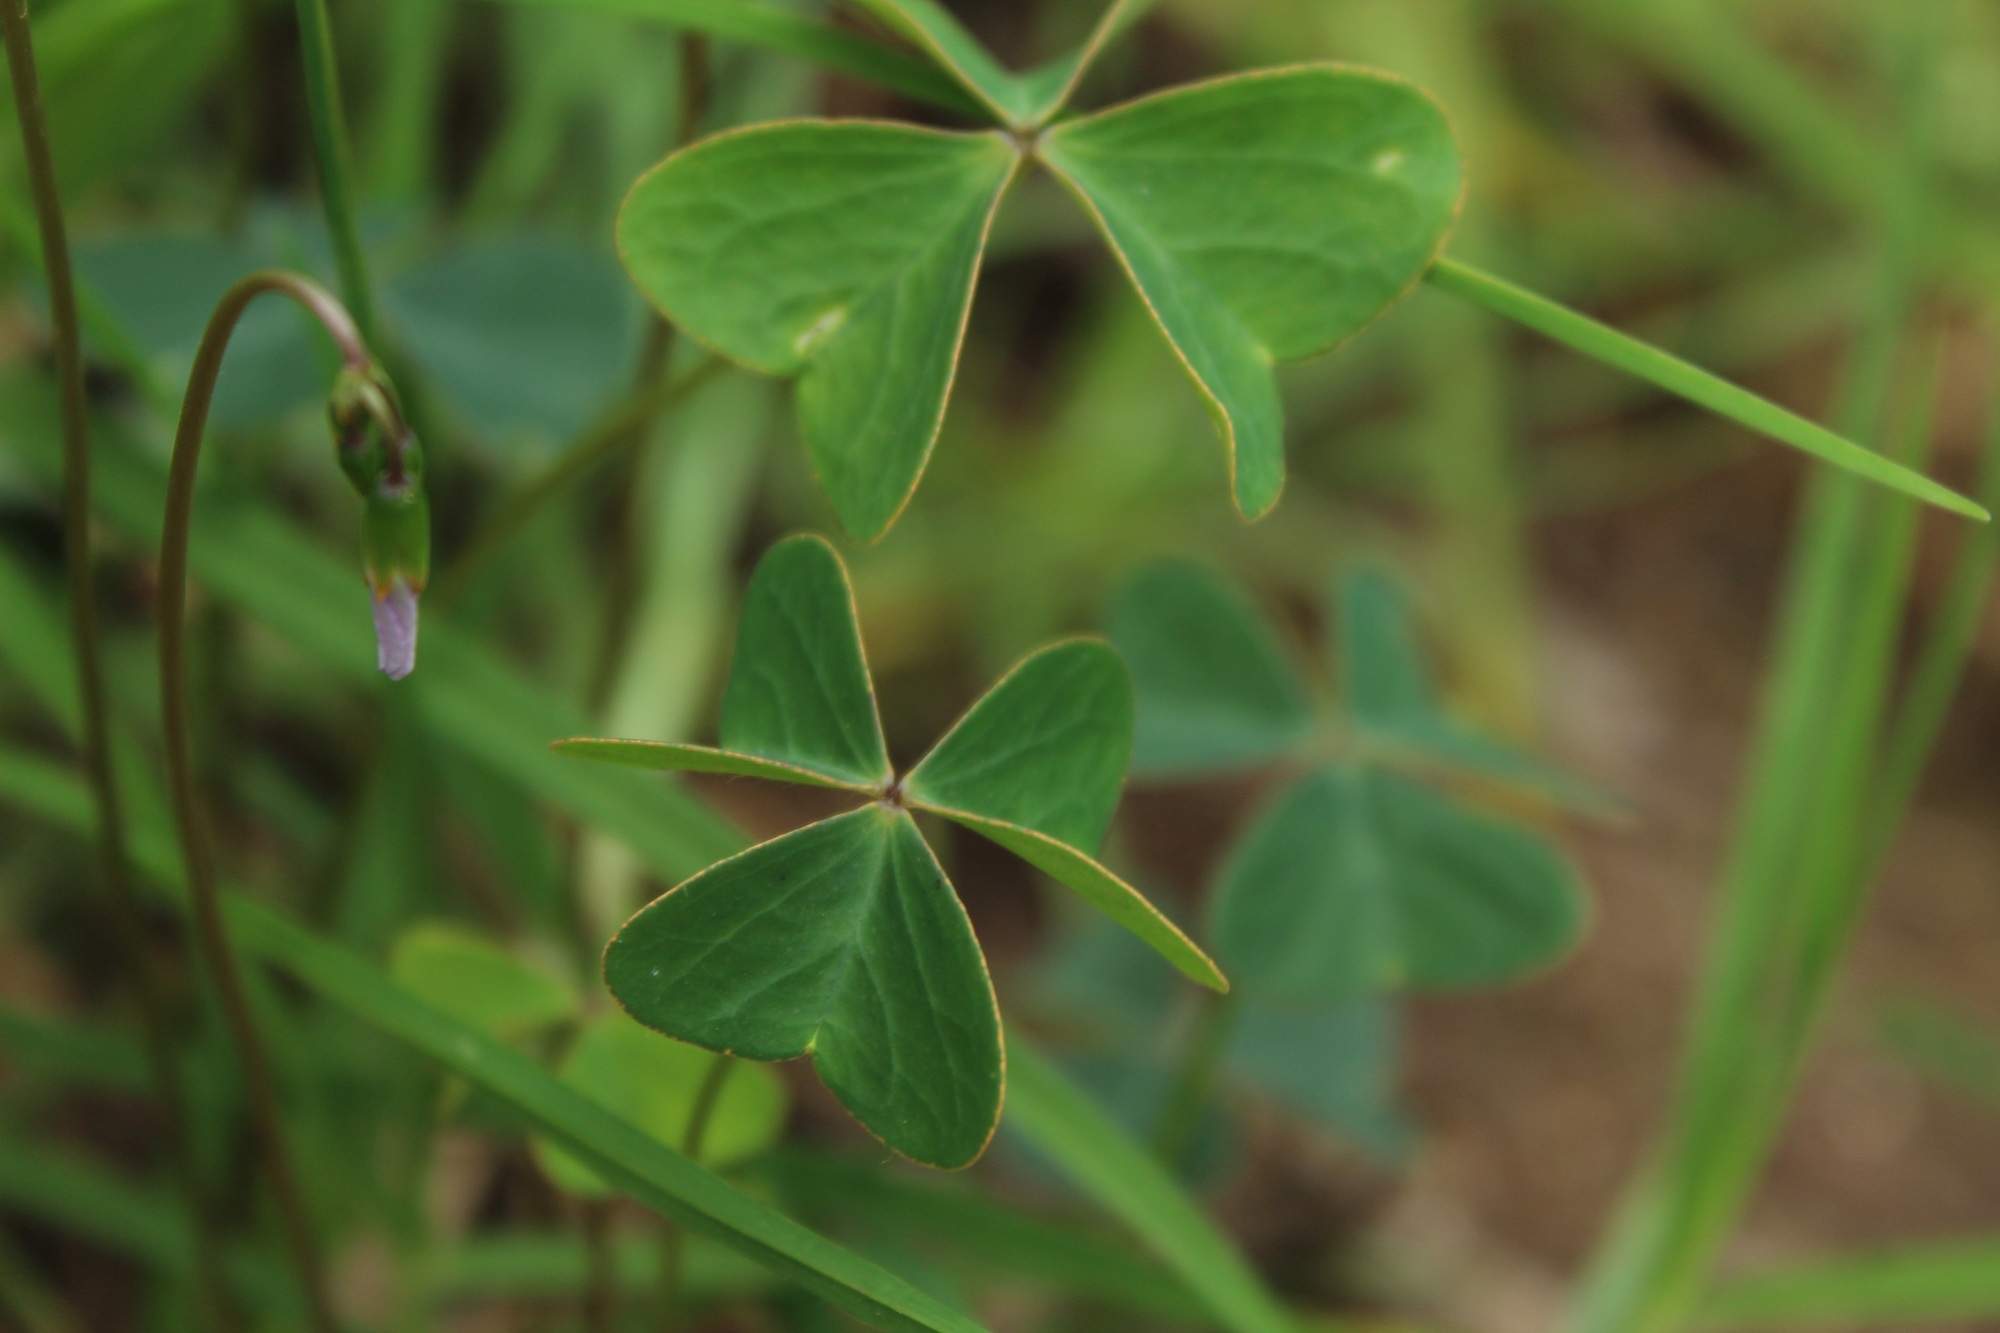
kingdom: Plantae
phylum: Tracheophyta
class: Magnoliopsida
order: Oxalidales
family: Oxalidaceae
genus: Oxalis
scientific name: Oxalis cuatrecasasii
